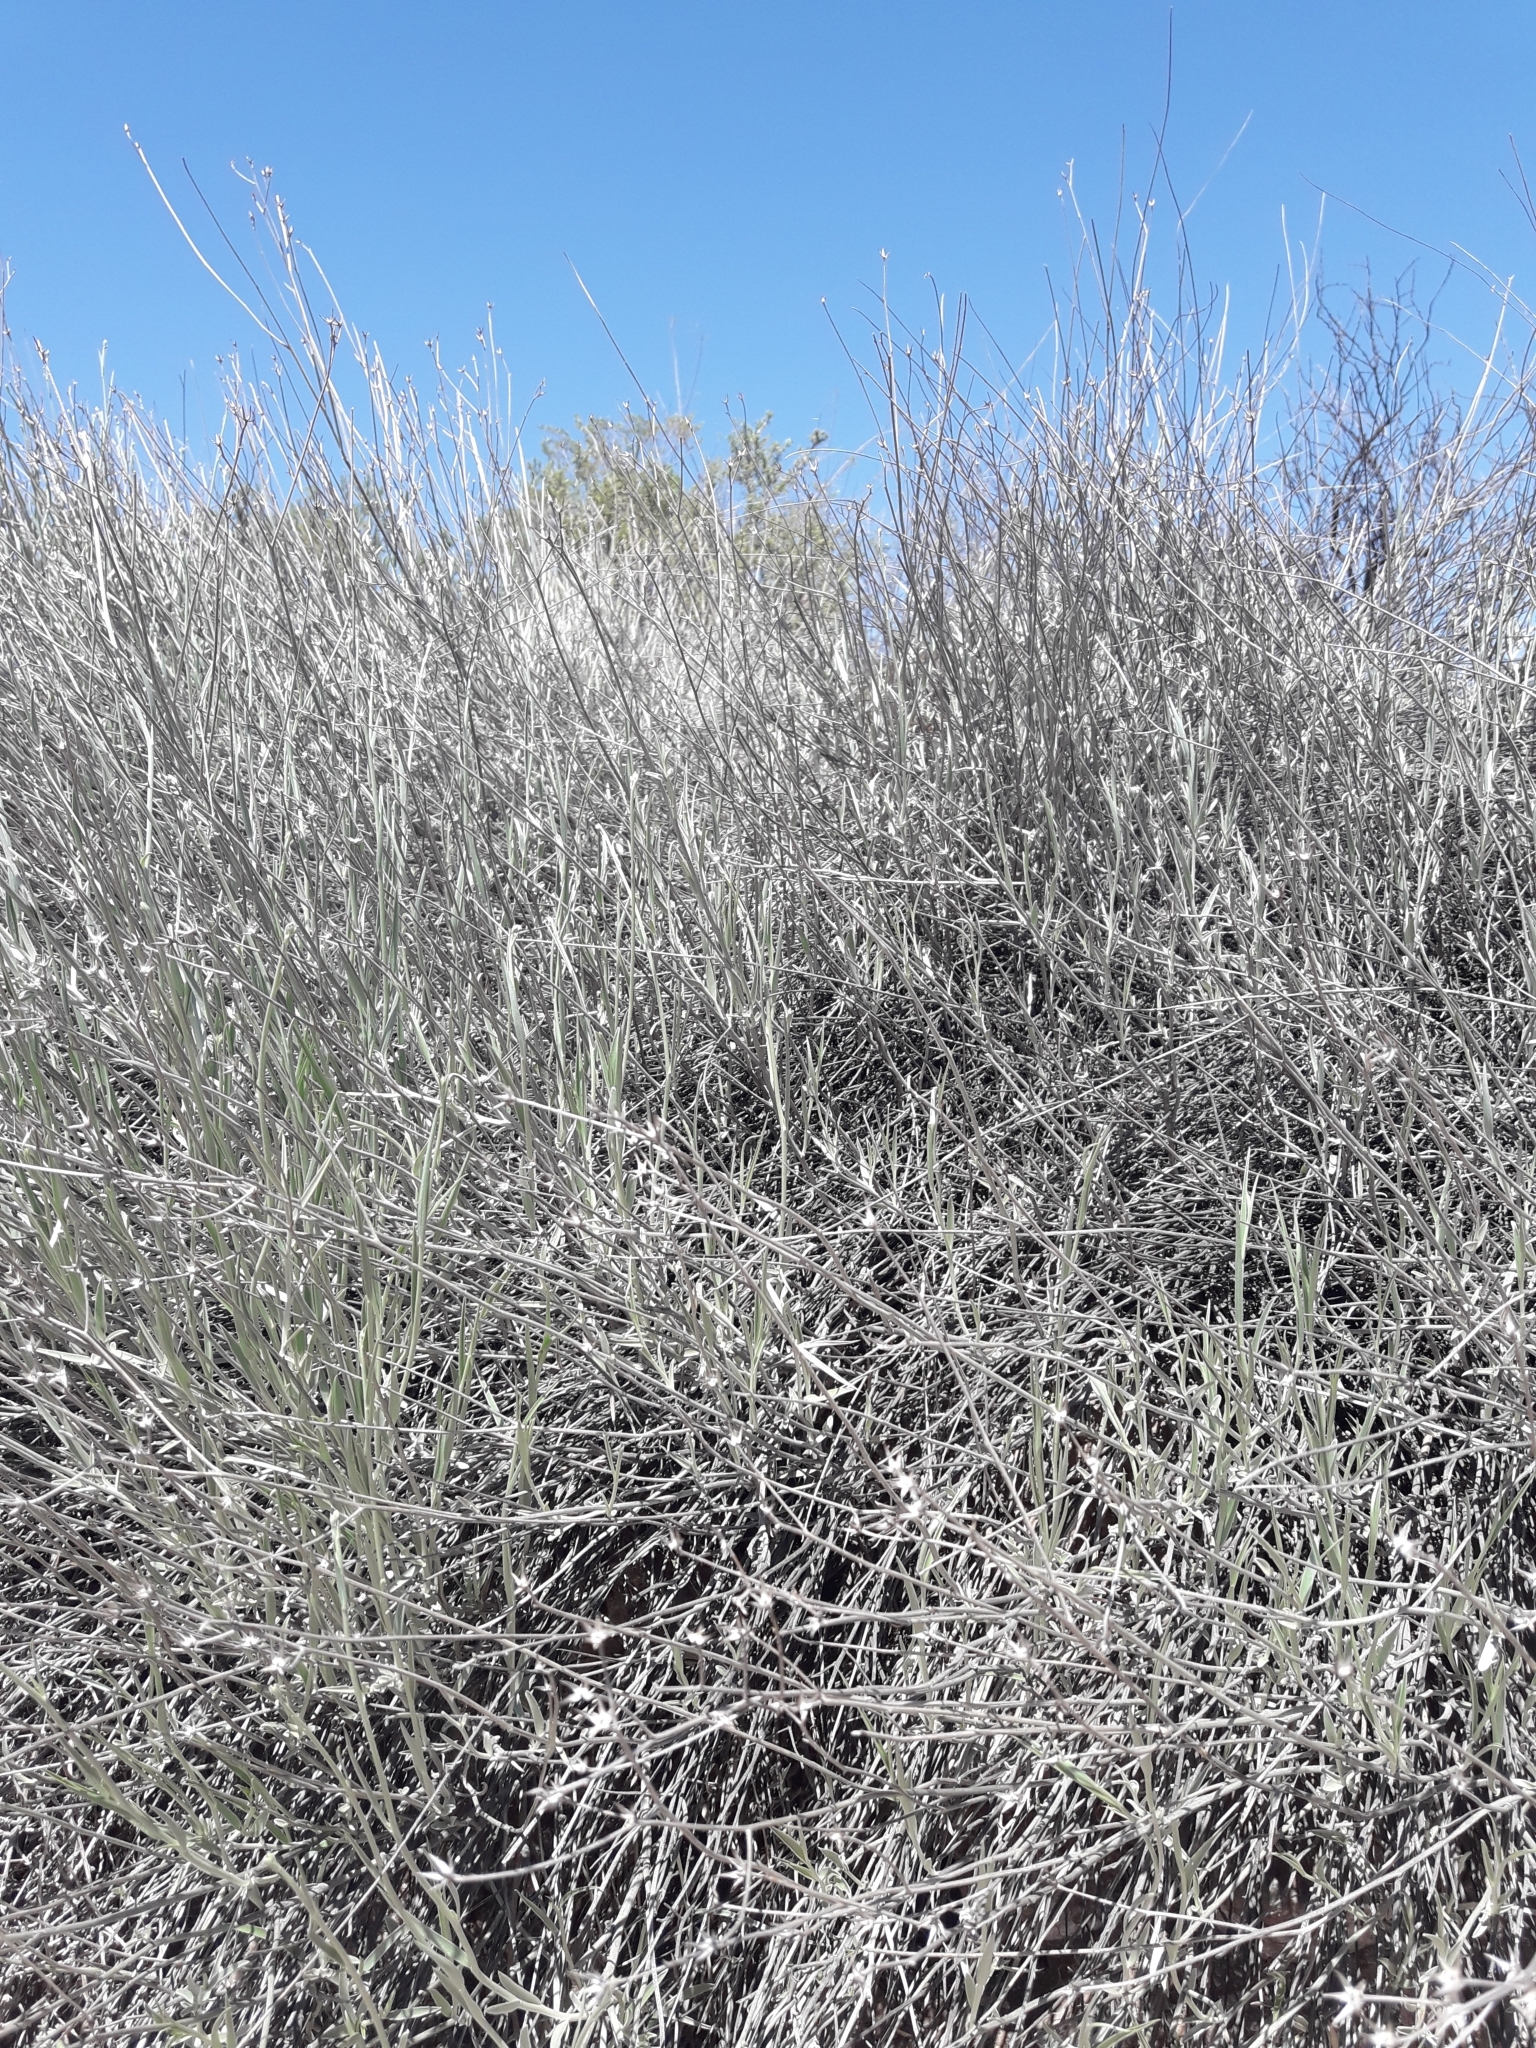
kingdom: Plantae
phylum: Tracheophyta
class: Magnoliopsida
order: Asterales
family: Asteraceae
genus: Hyalis
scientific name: Hyalis argentea
